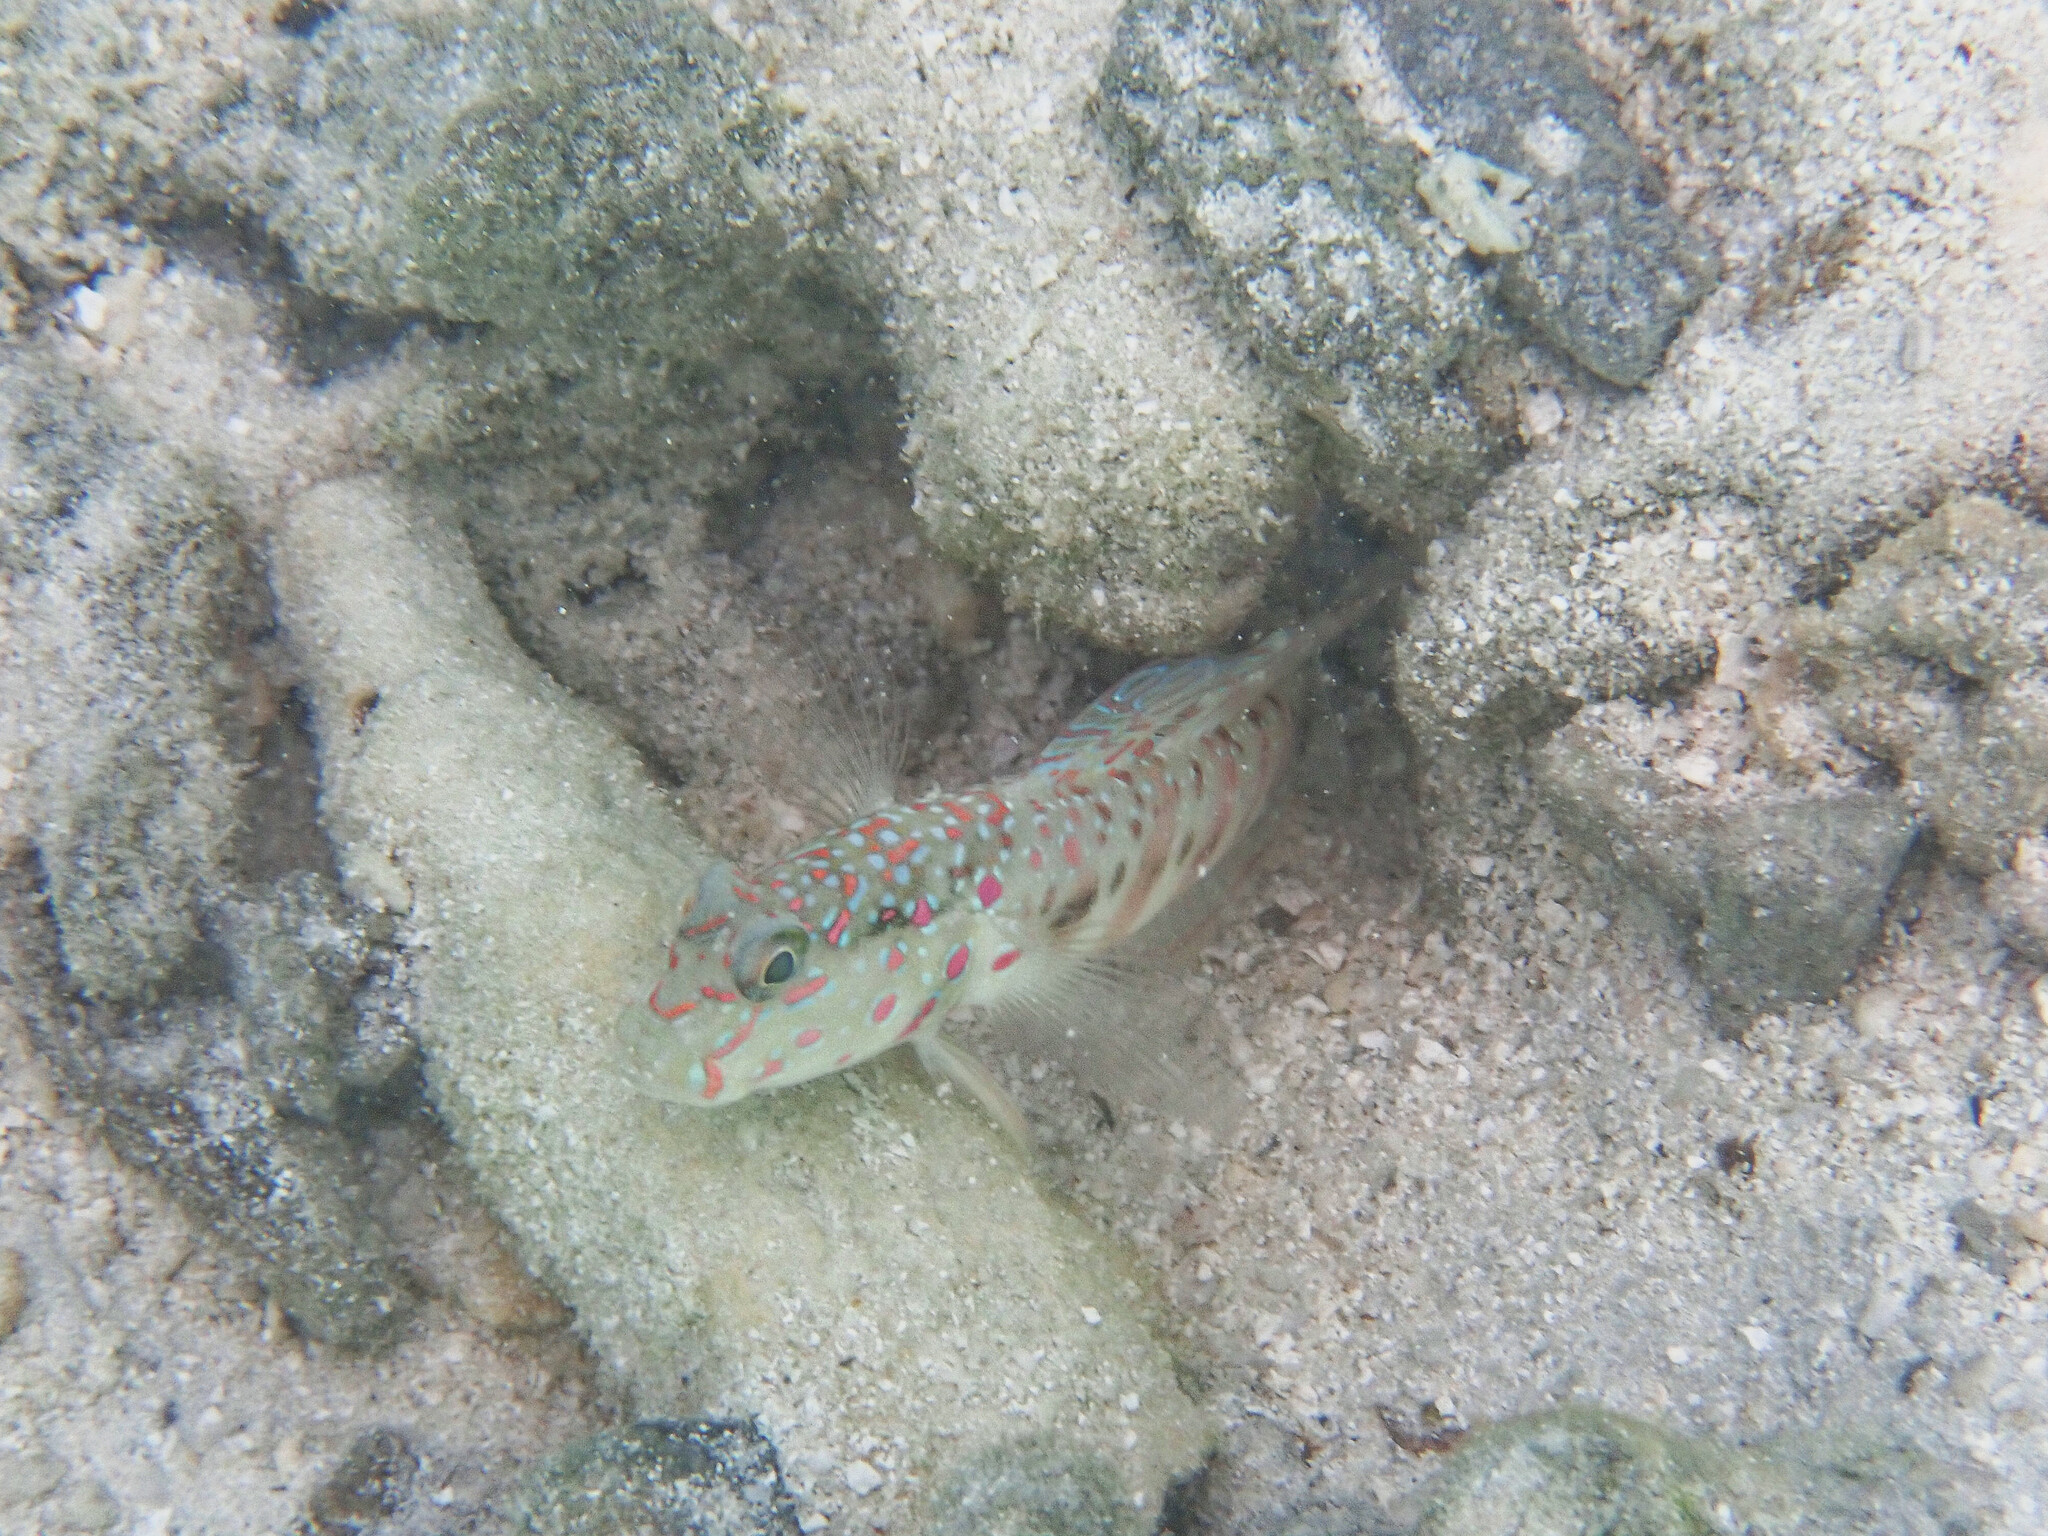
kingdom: Animalia
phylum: Chordata
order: Perciformes
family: Gobiidae
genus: Cryptocentrus
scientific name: Cryptocentrus melanopus
